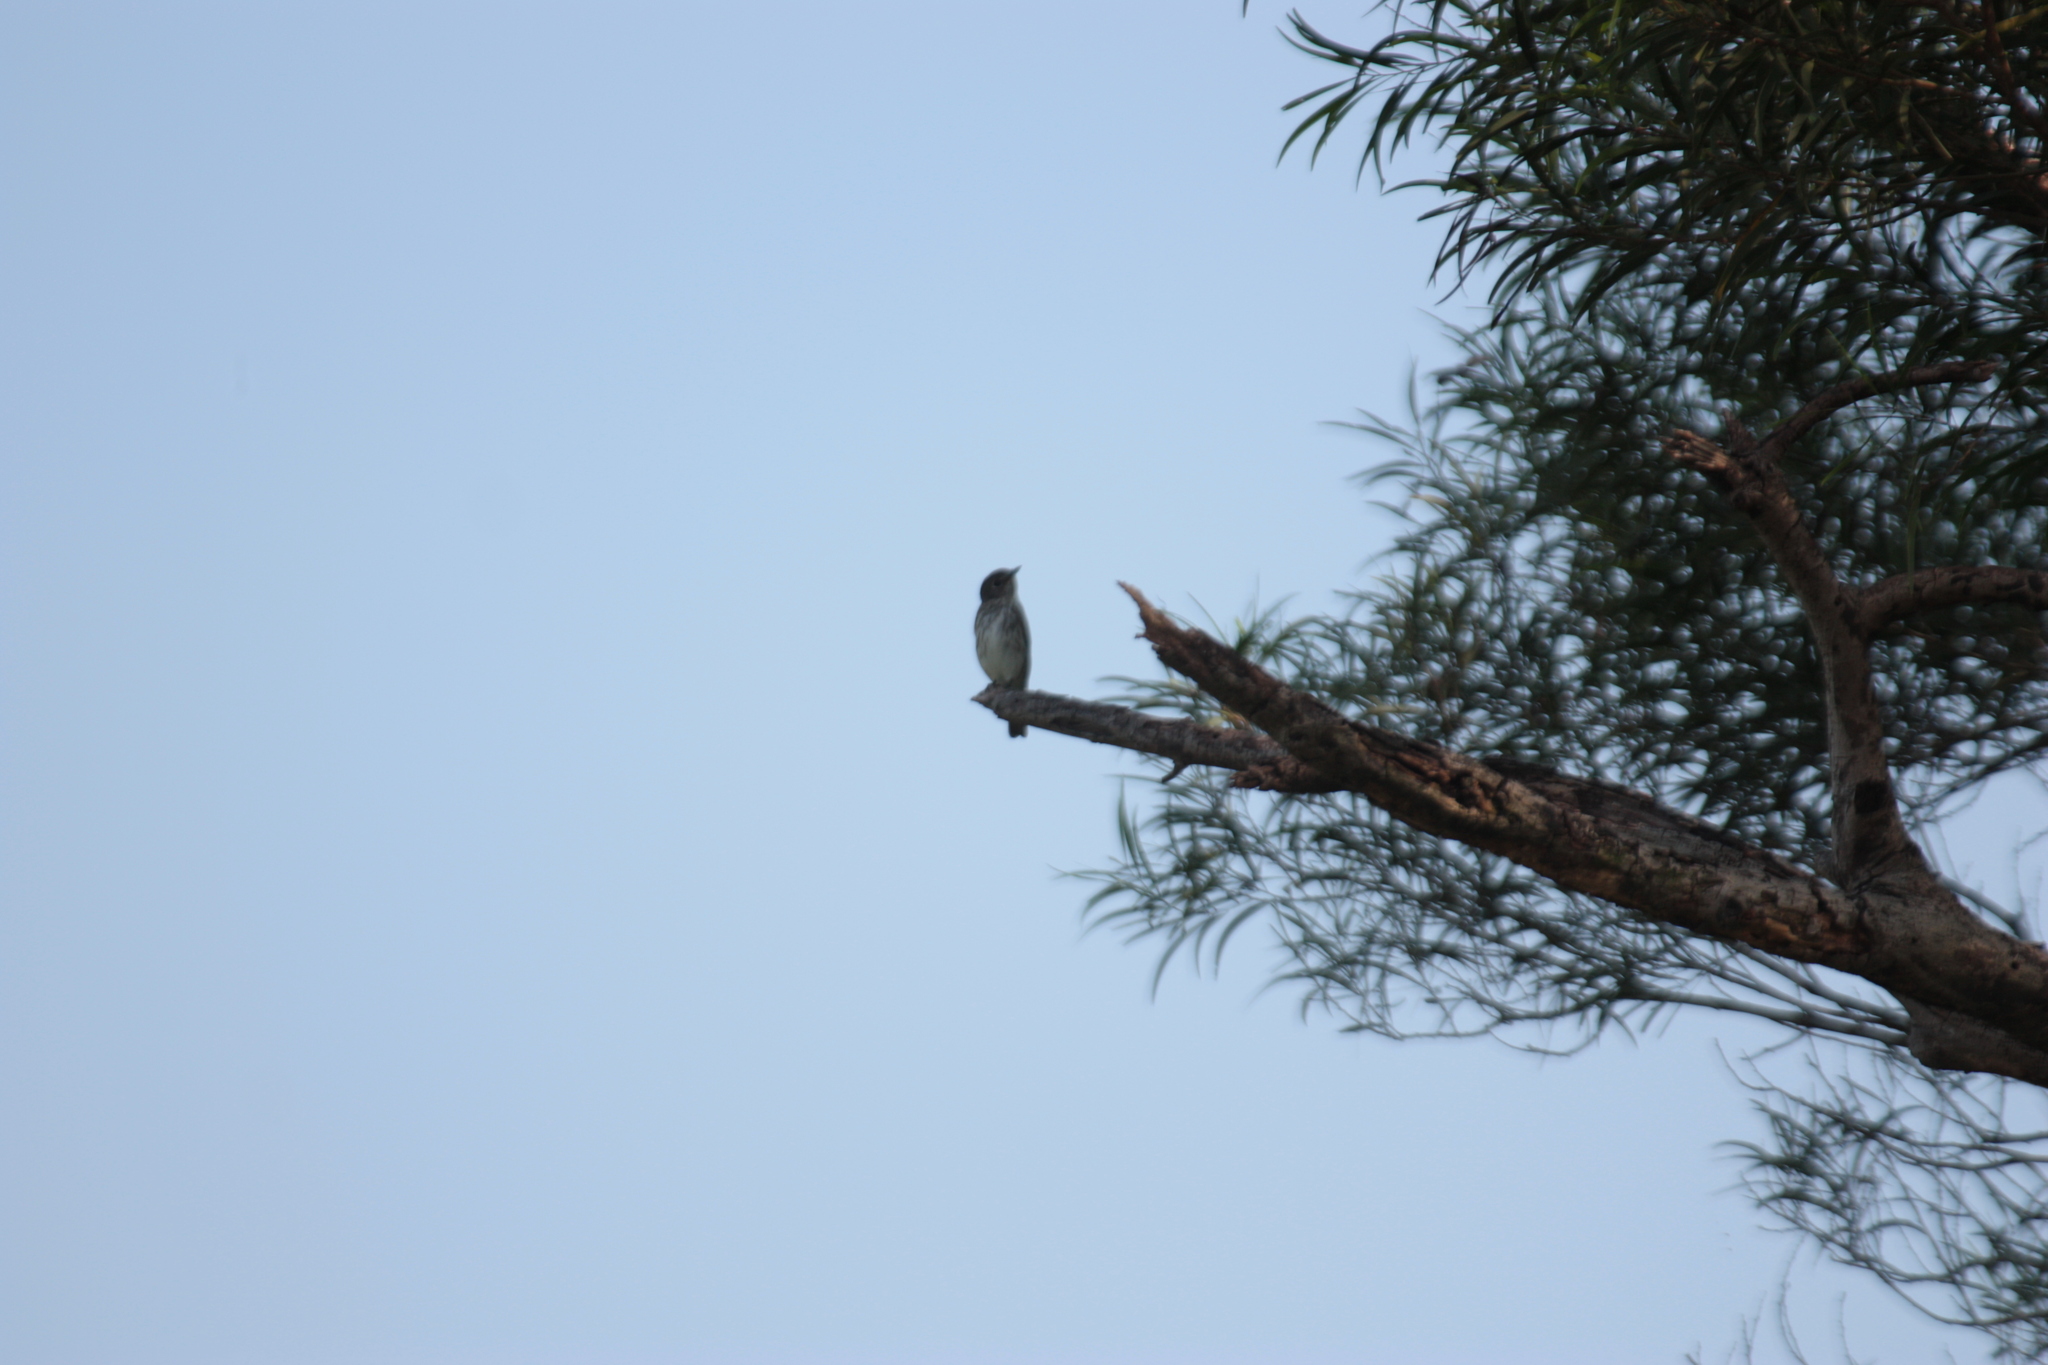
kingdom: Animalia
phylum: Chordata
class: Aves
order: Passeriformes
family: Muscicapidae
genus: Muscicapa
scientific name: Muscicapa griseisticta
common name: Gray-streaked flycatcher
